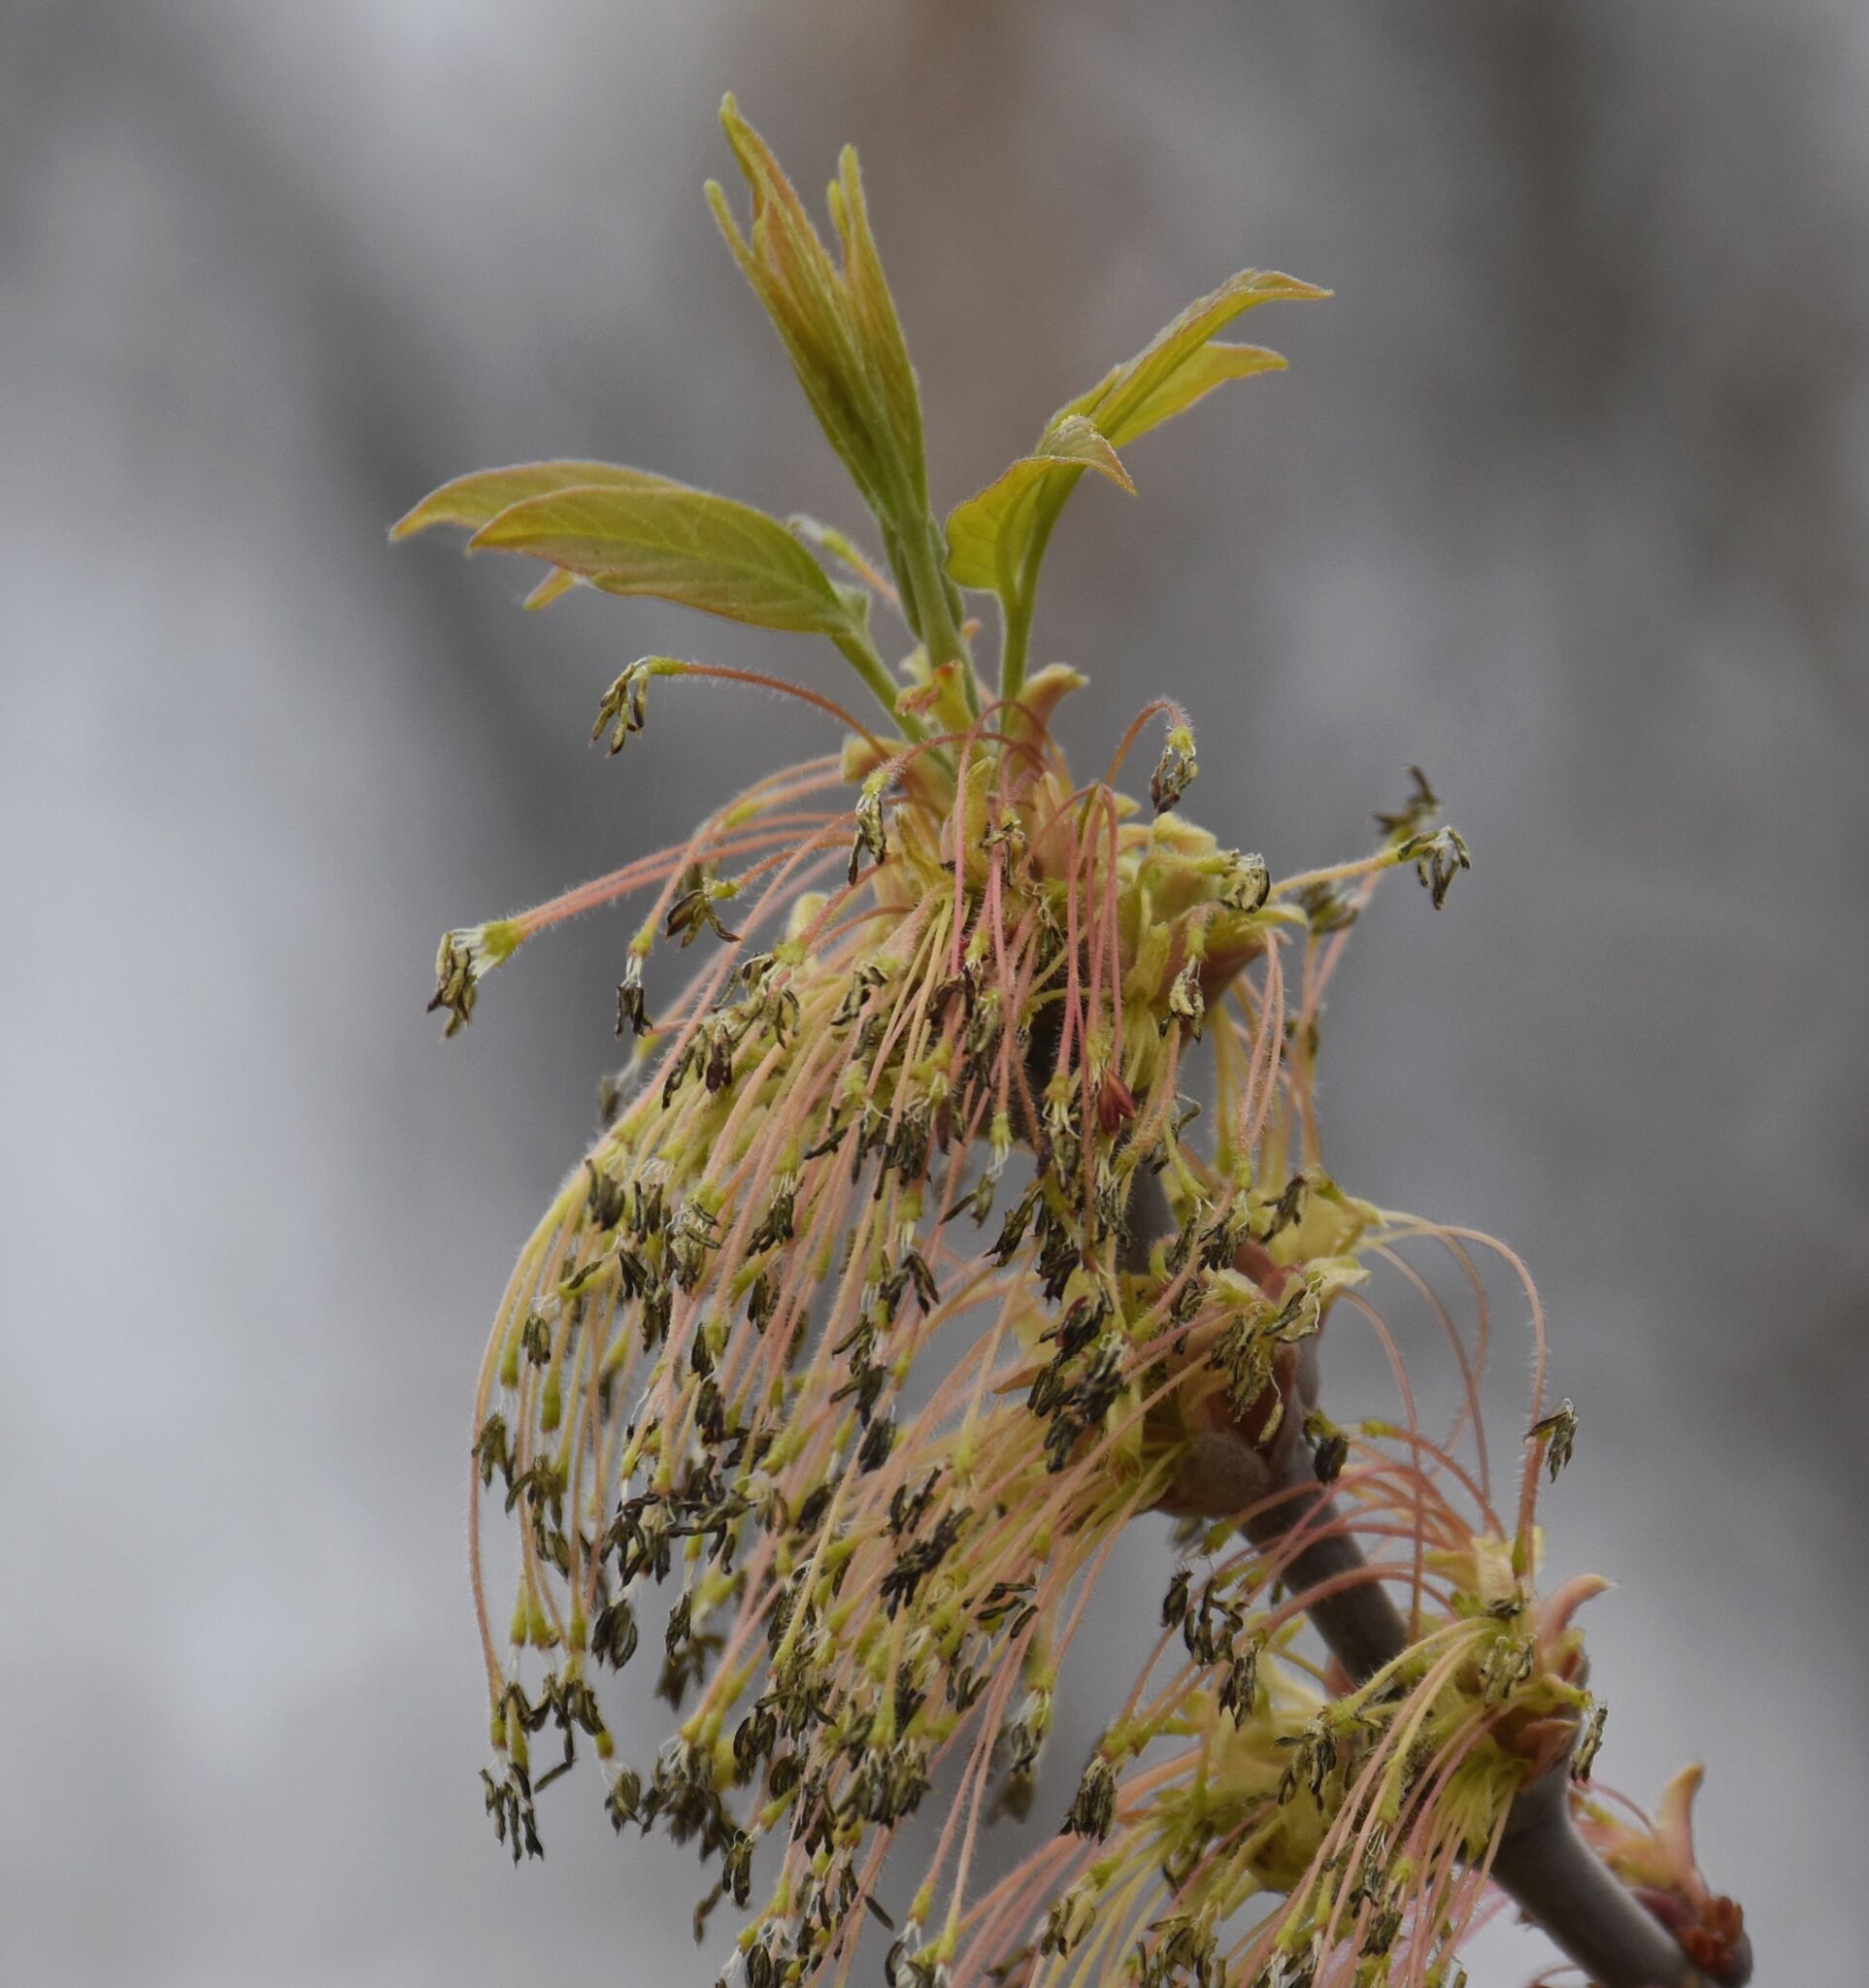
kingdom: Plantae
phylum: Tracheophyta
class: Magnoliopsida
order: Sapindales
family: Sapindaceae
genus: Acer
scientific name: Acer negundo
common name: Ashleaf maple
